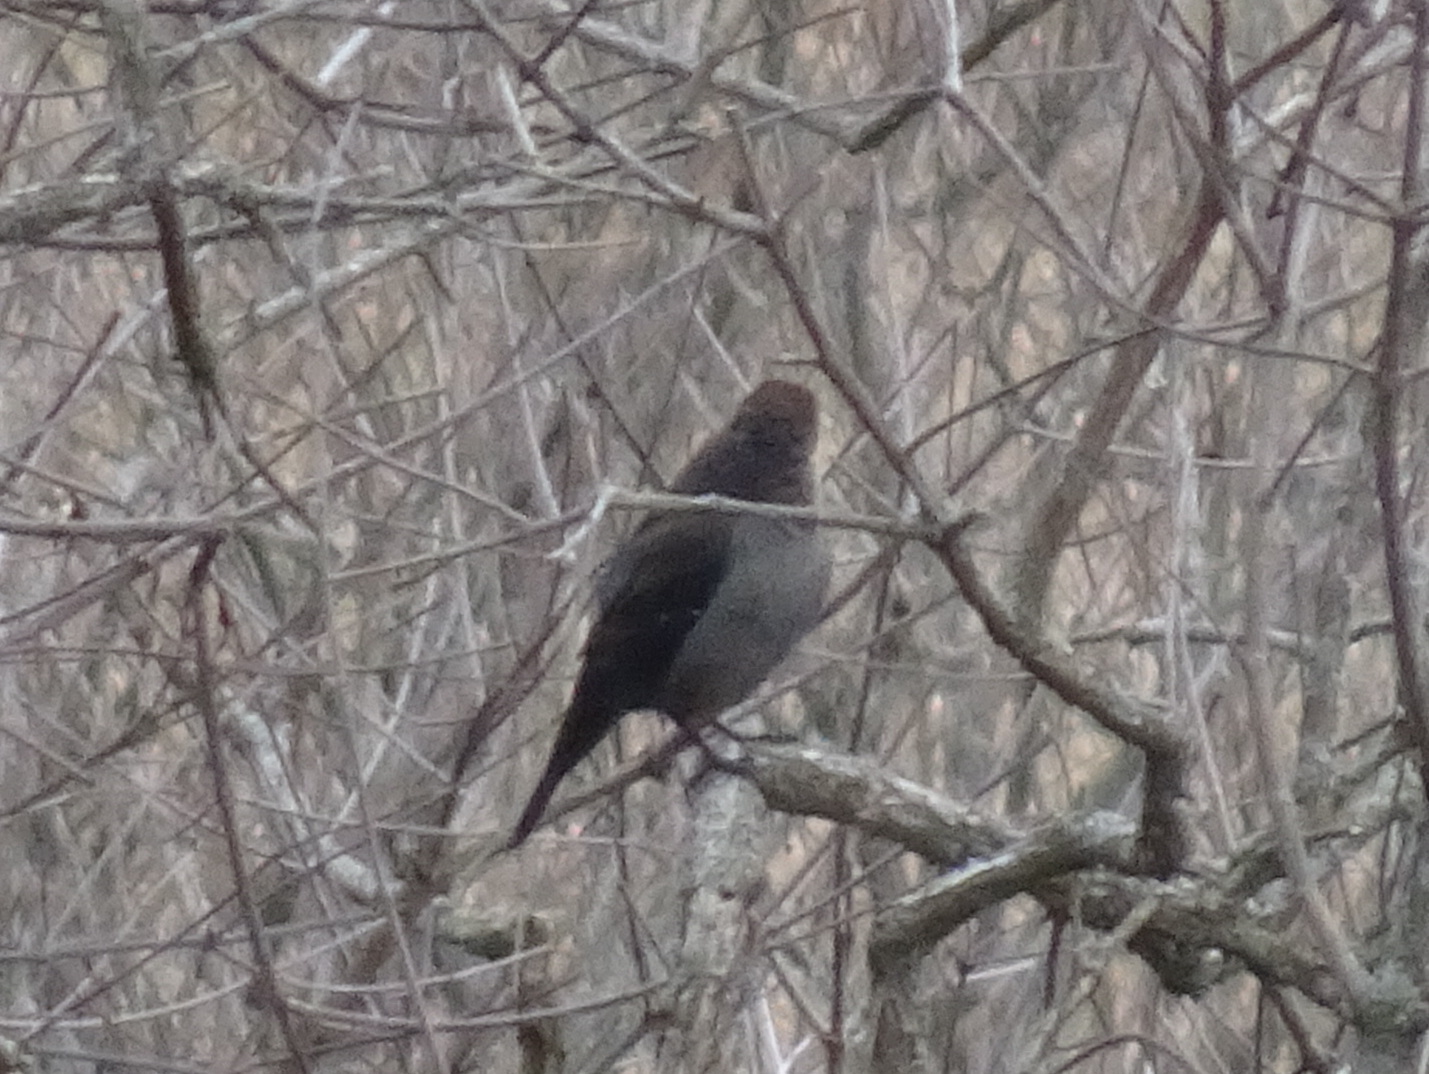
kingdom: Animalia
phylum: Chordata
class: Aves
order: Passeriformes
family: Icteridae
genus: Euphagus
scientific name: Euphagus carolinus
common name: Rusty blackbird
